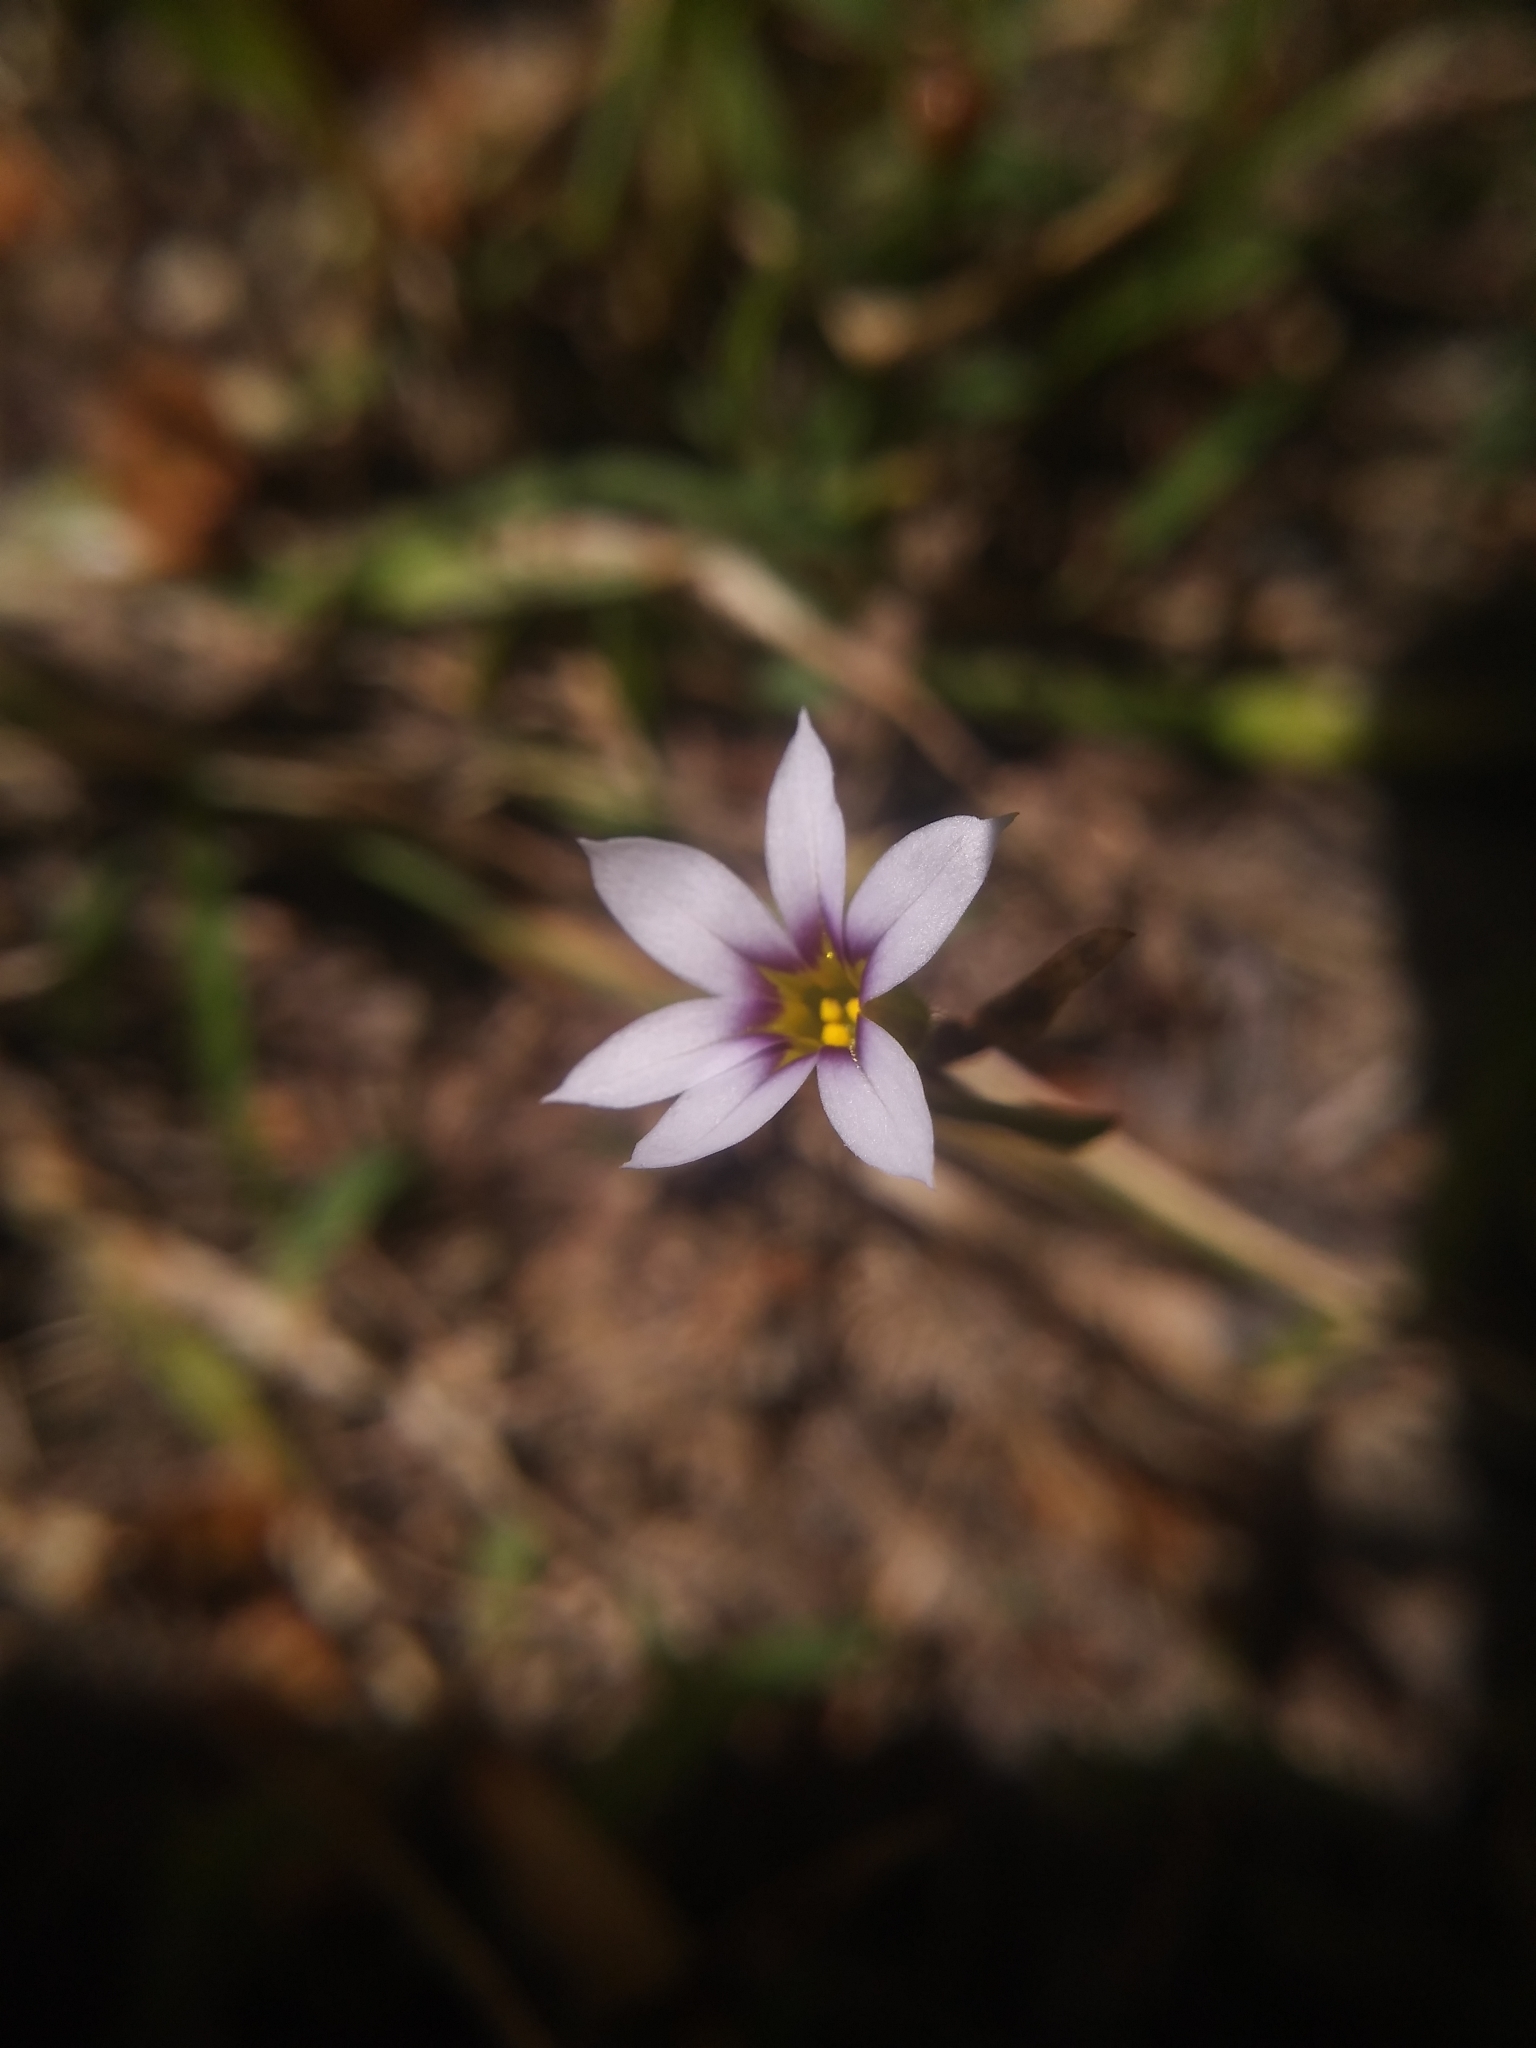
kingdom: Plantae
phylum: Tracheophyta
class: Liliopsida
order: Asparagales
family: Iridaceae
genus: Sisyrinchium
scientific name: Sisyrinchium micranthum
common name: Bermuda pigroot
